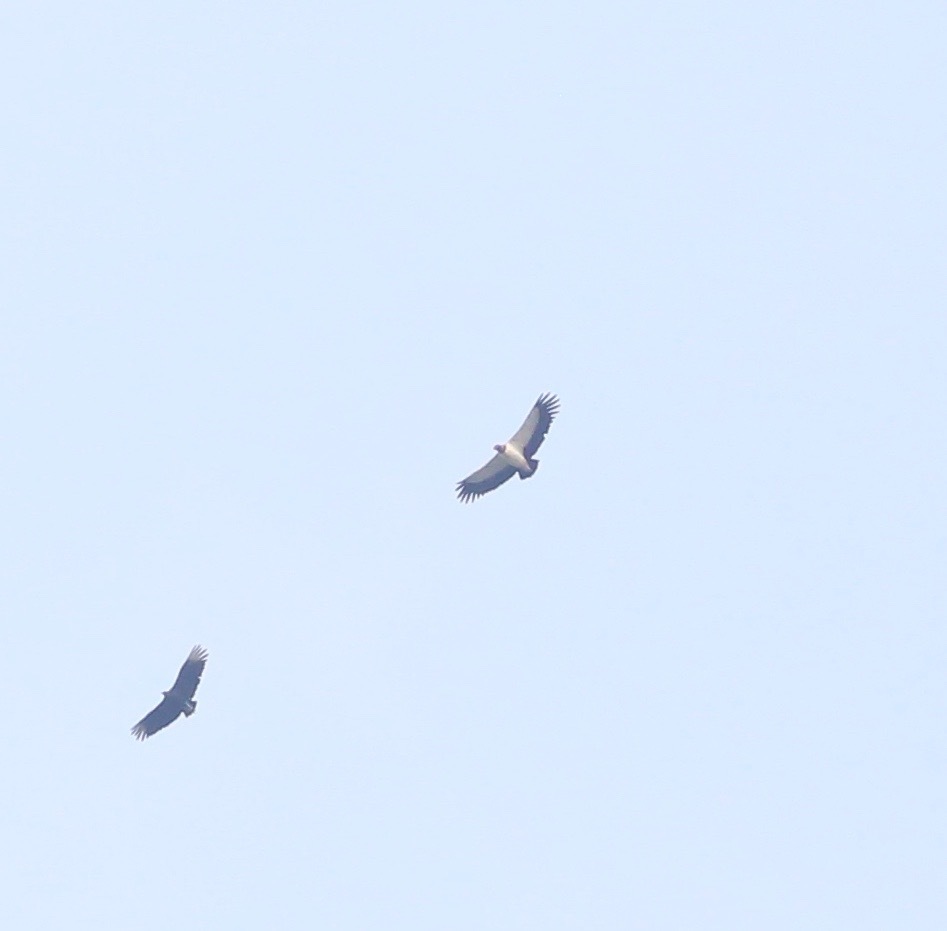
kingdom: Animalia
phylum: Chordata
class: Aves
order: Accipitriformes
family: Cathartidae
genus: Sarcoramphus
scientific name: Sarcoramphus papa
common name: King vulture
